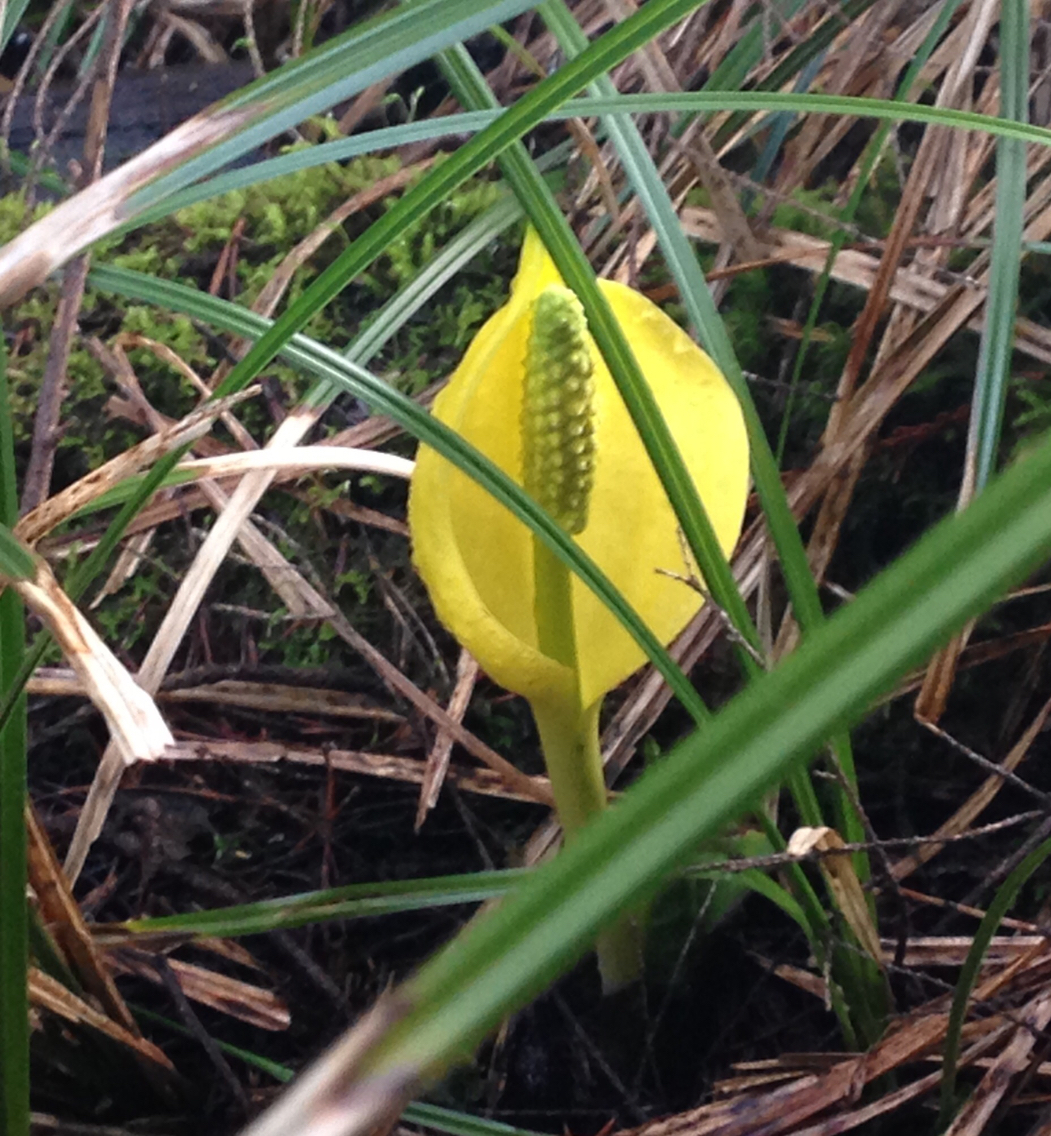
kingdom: Plantae
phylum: Tracheophyta
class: Liliopsida
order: Alismatales
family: Araceae
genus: Lysichiton
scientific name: Lysichiton americanus
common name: American skunk cabbage
